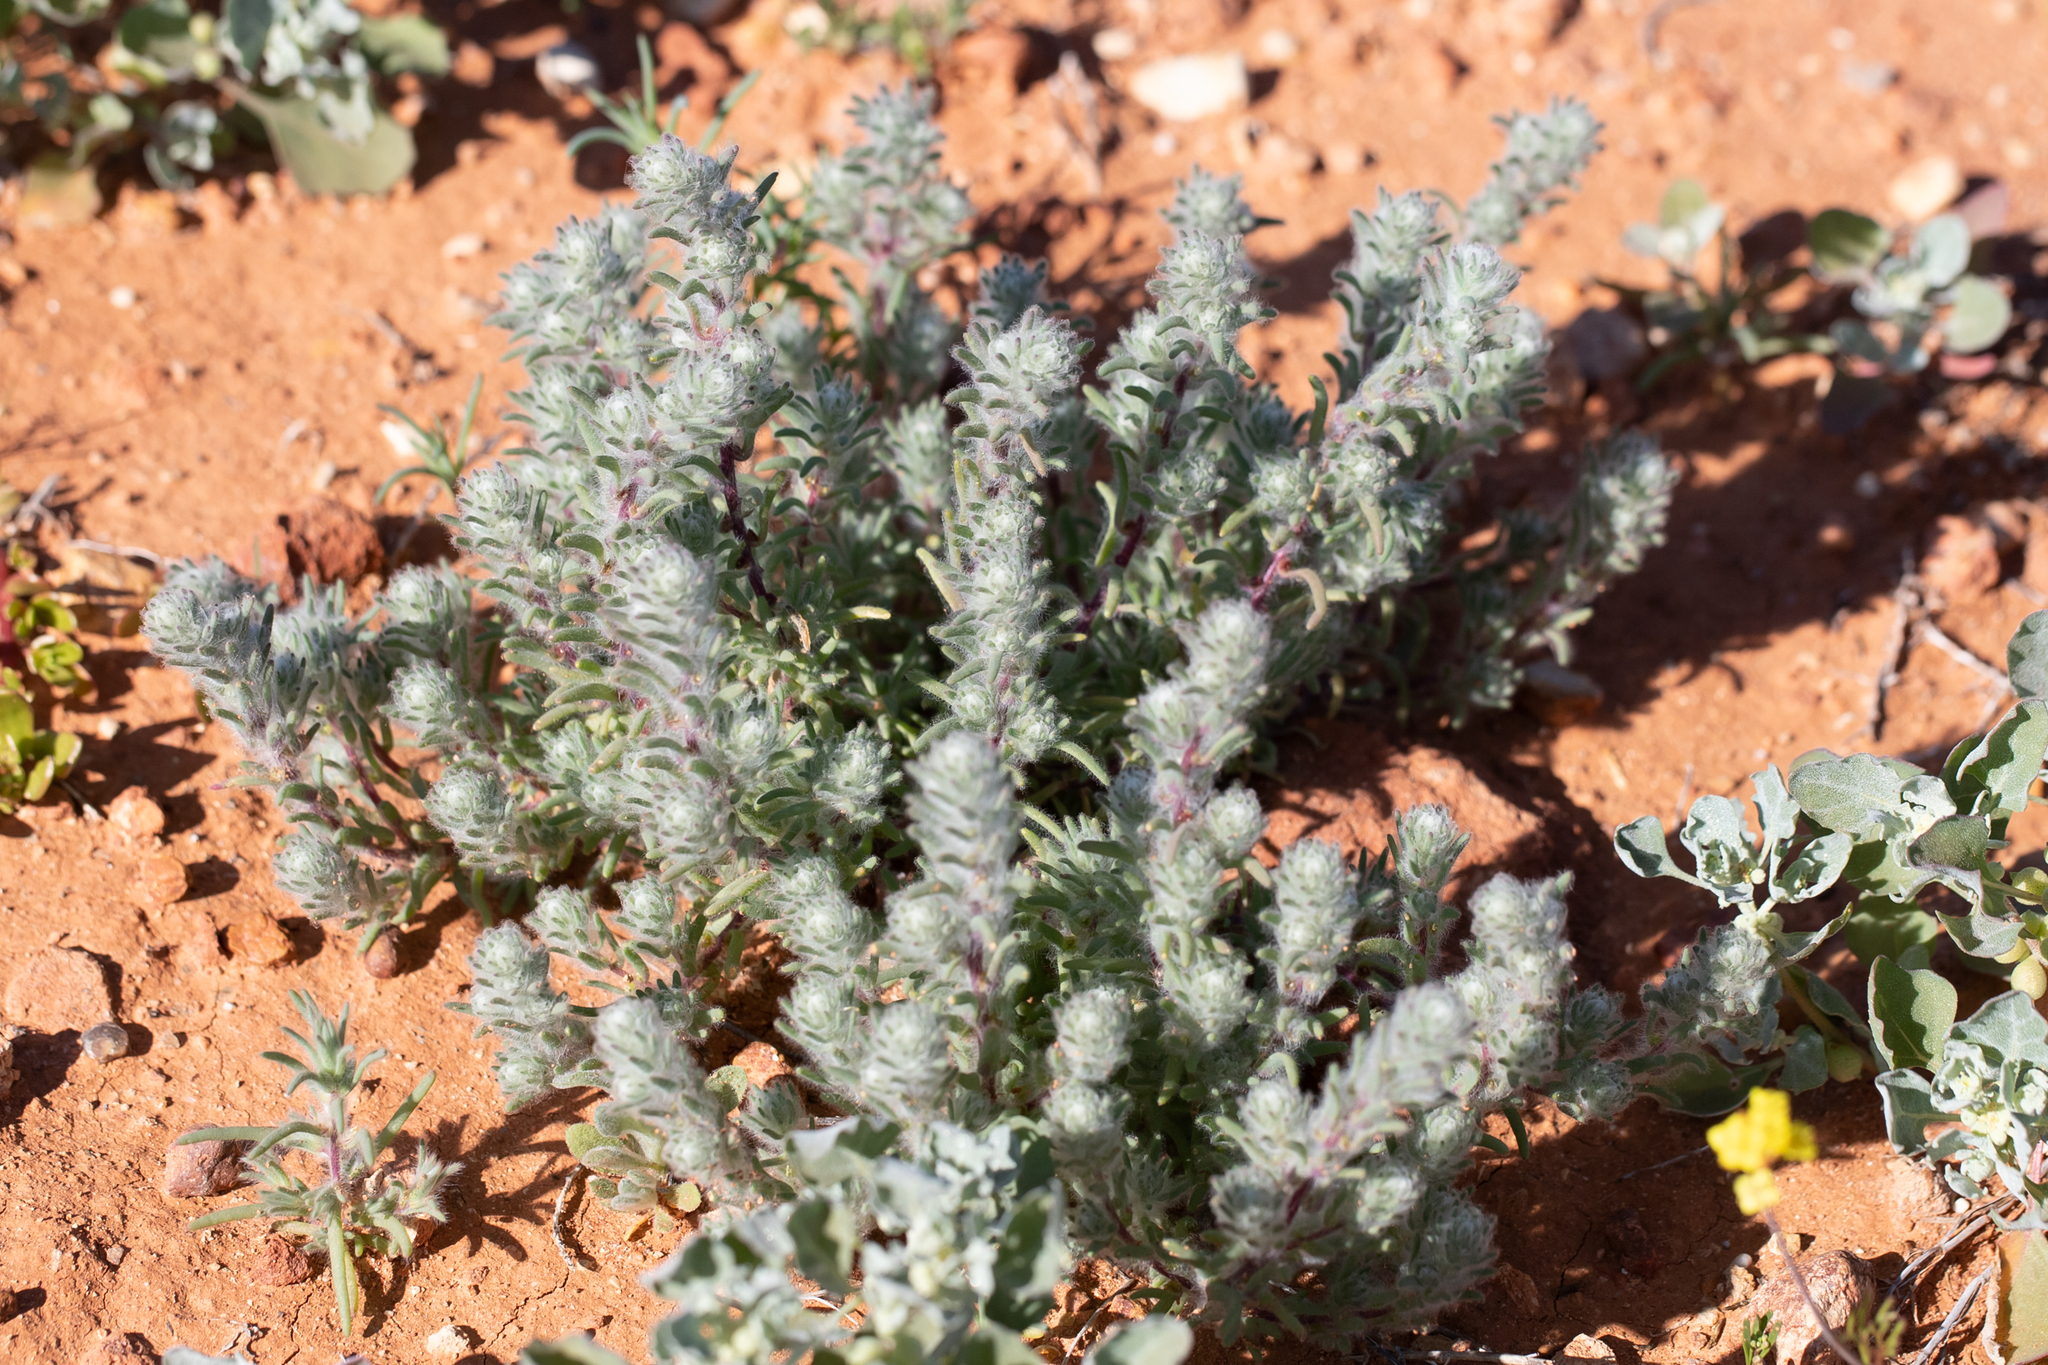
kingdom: Plantae
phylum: Tracheophyta
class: Magnoliopsida
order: Caryophyllales
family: Amaranthaceae
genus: Sclerolaena
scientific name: Sclerolaena brachyptera
